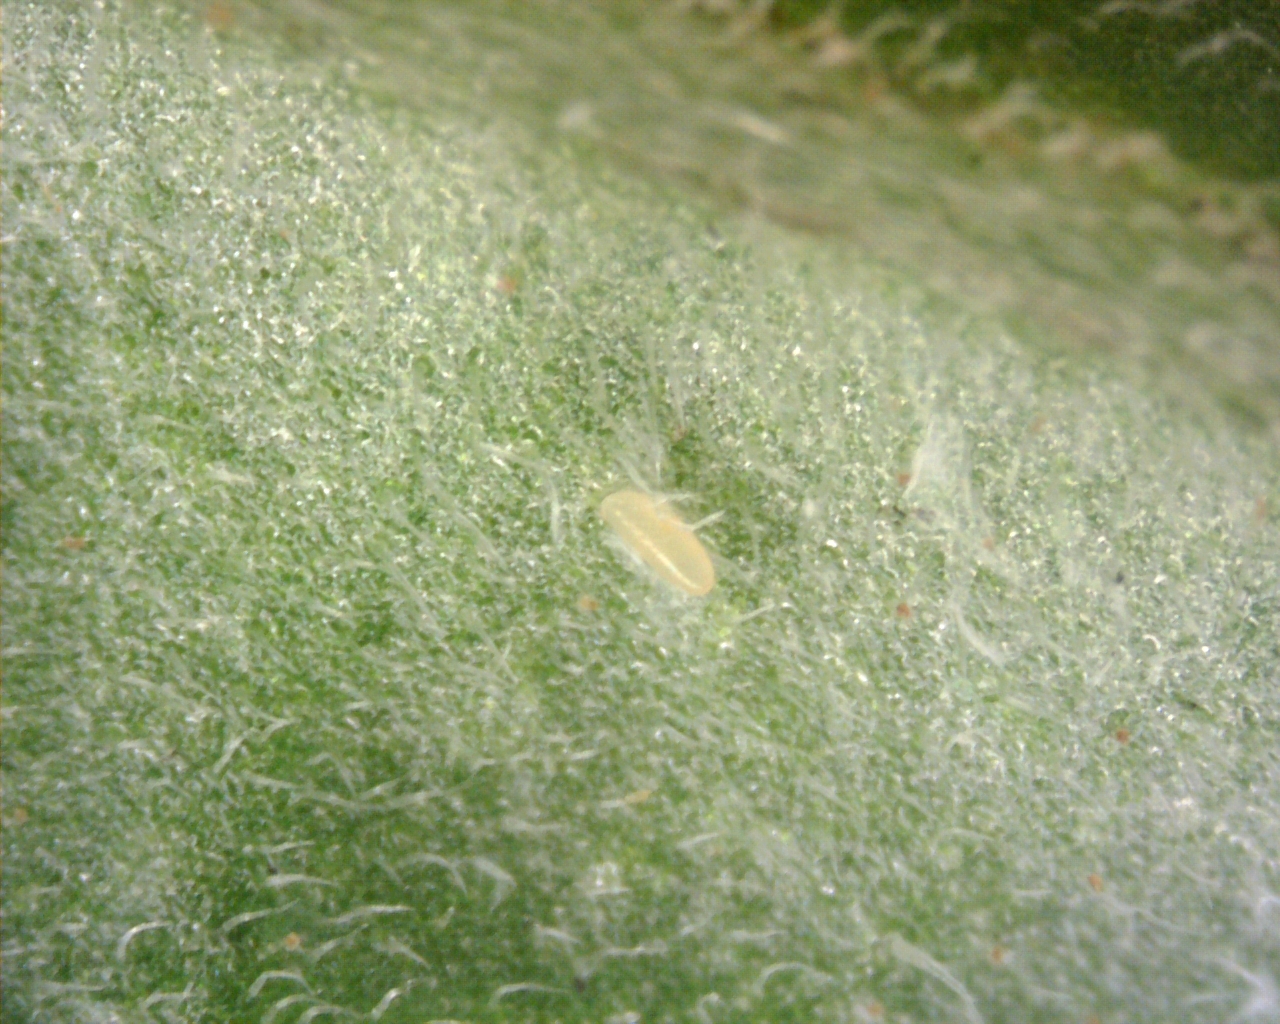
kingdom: Animalia
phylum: Arthropoda
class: Insecta
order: Hemiptera
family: Aleyrodidae
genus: Bemisia
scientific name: Bemisia tabaci
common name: Sweetpotato whitefly
